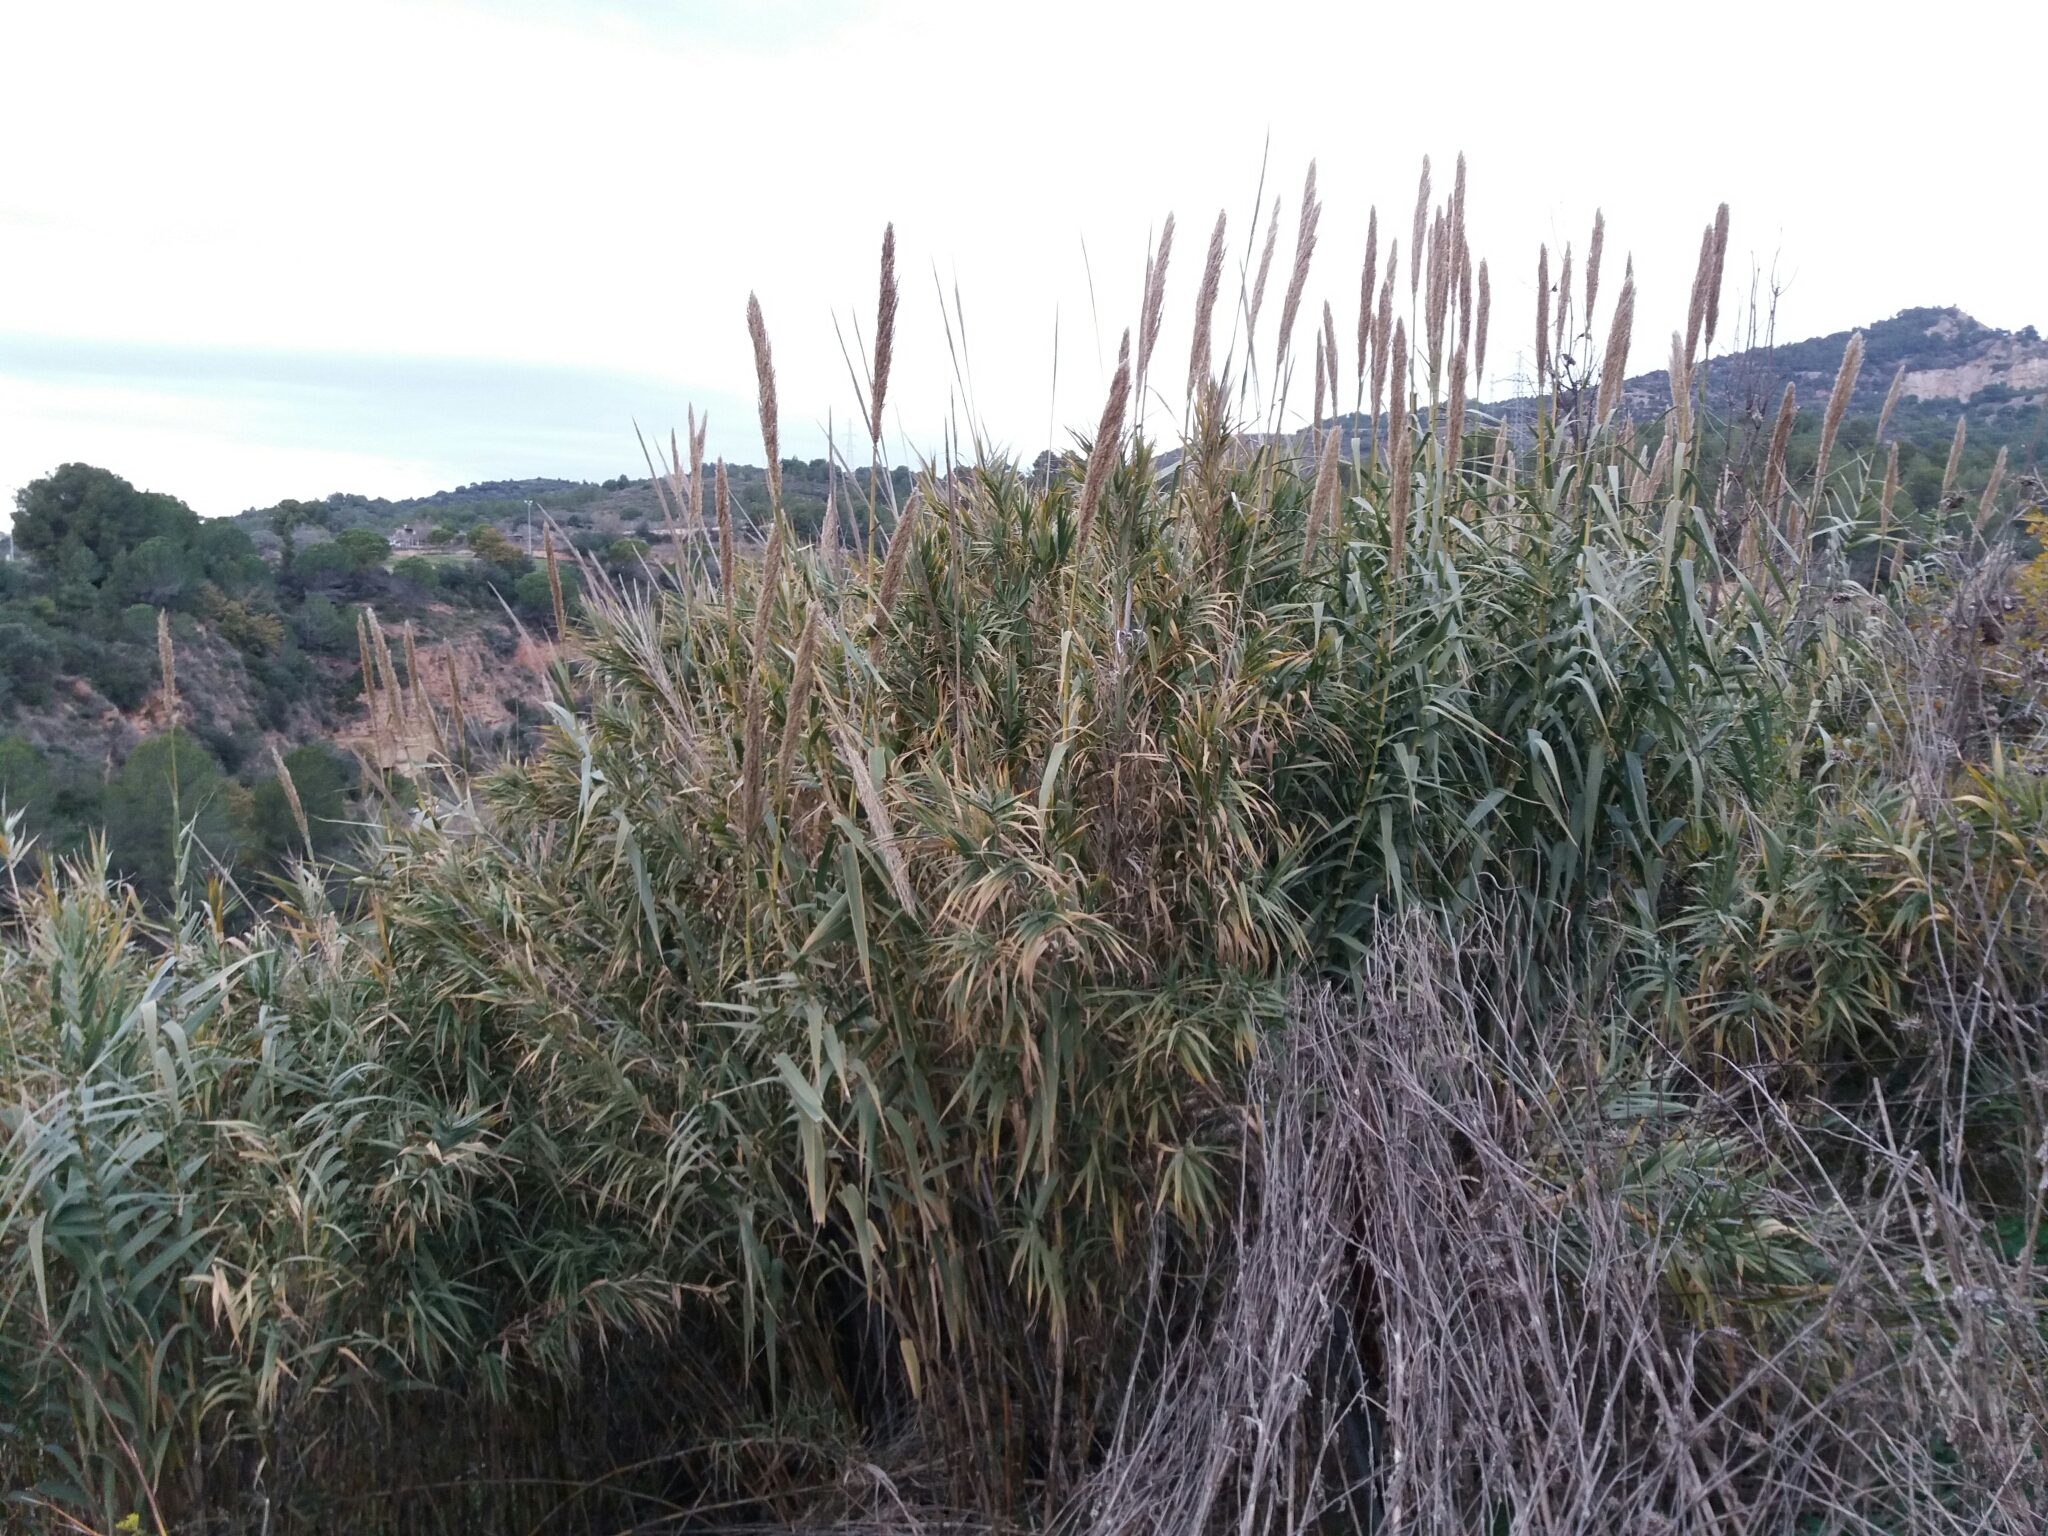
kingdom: Plantae
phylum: Tracheophyta
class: Liliopsida
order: Poales
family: Poaceae
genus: Arundo
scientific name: Arundo donax
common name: Giant reed
